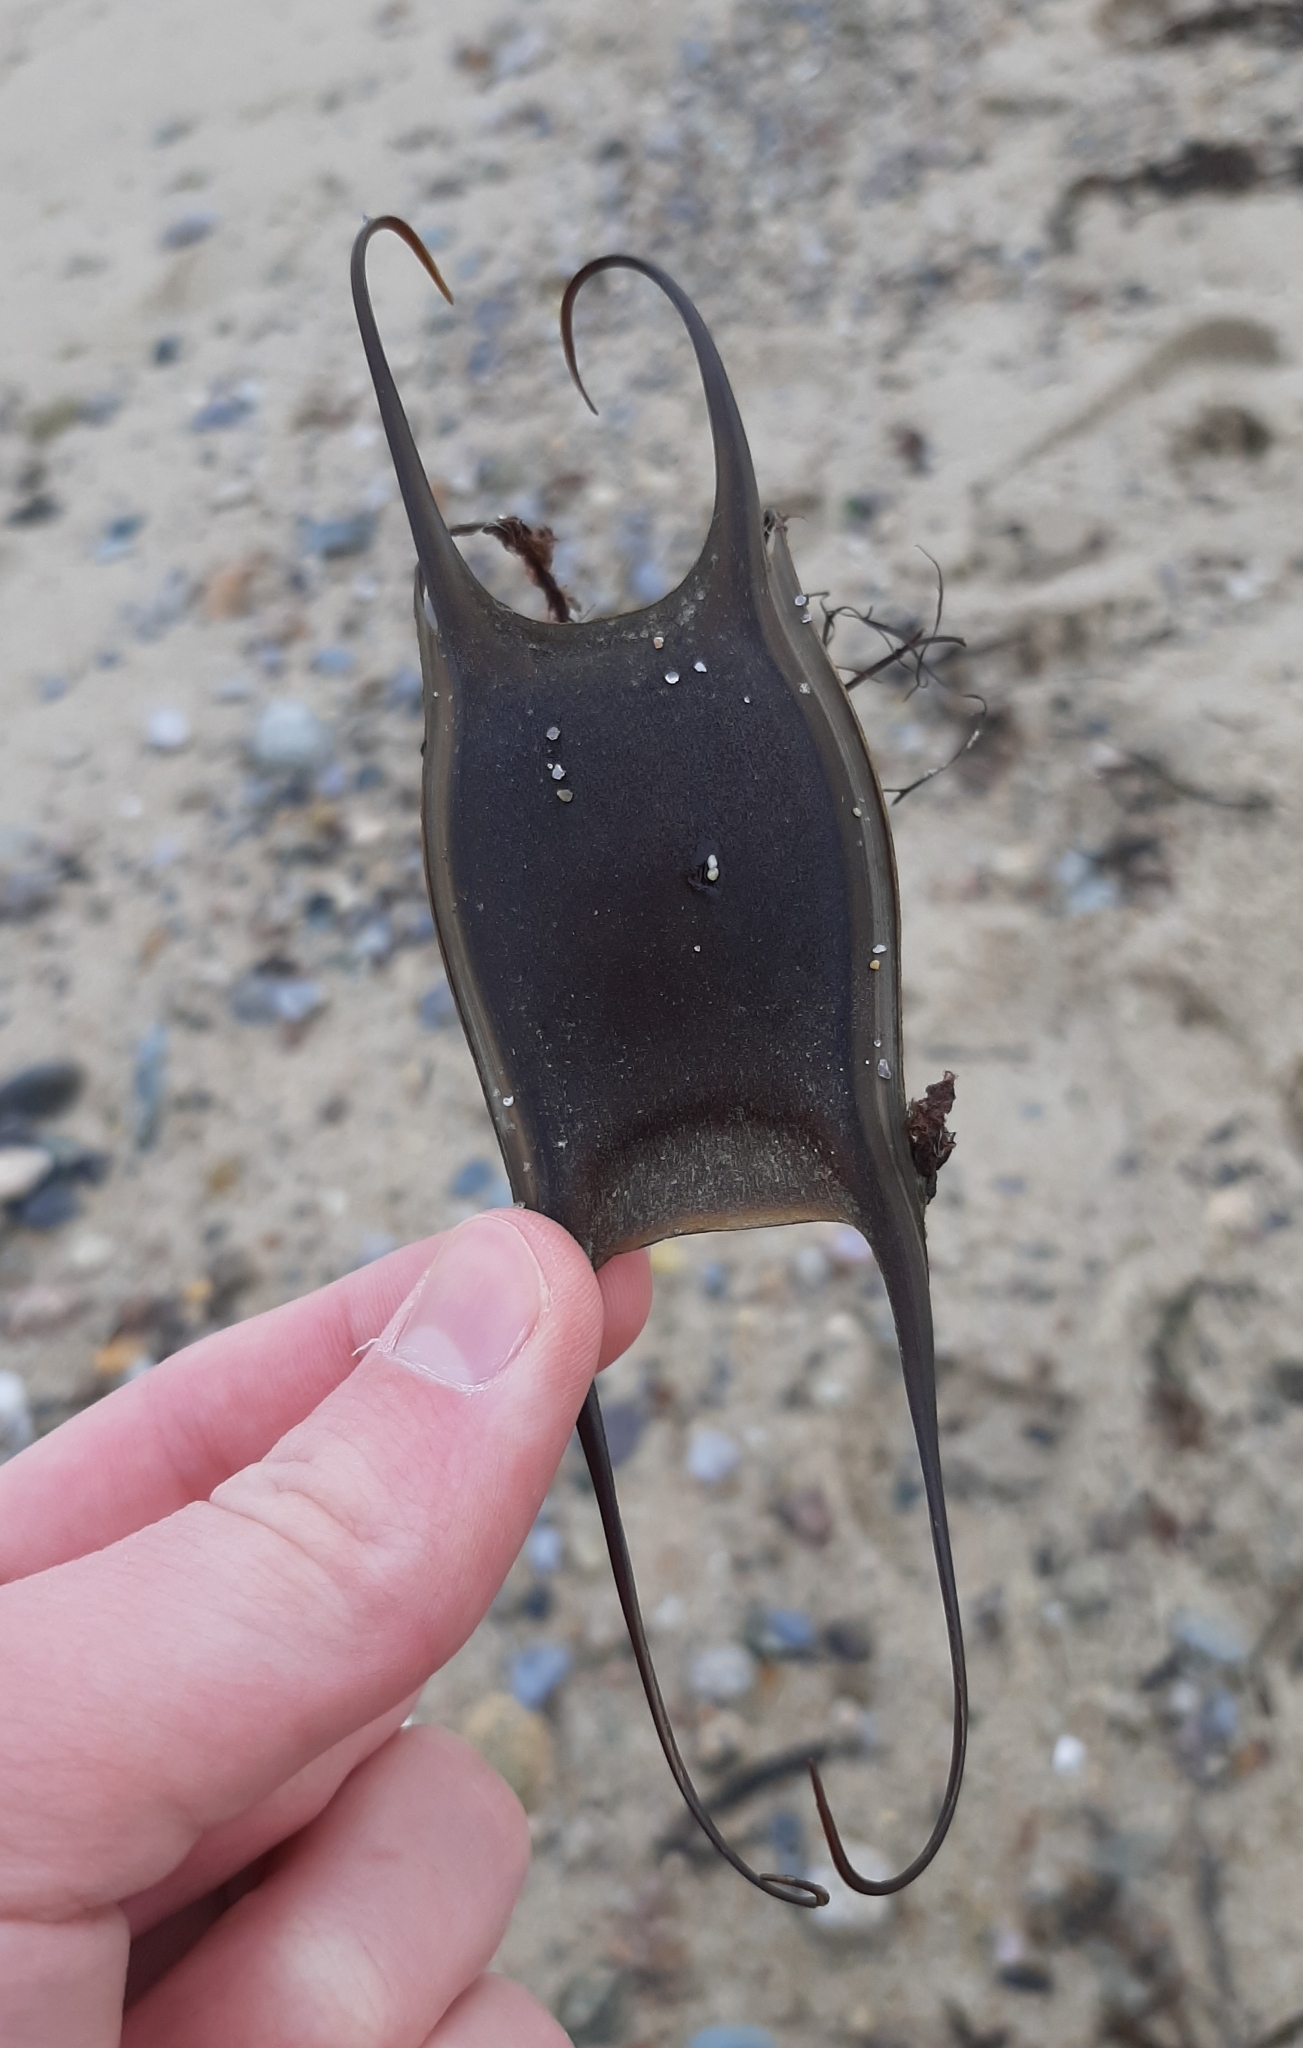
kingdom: Animalia
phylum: Chordata
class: Elasmobranchii
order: Rajiformes
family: Rajidae
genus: Leucoraja
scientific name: Leucoraja erinacea
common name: Little skate
